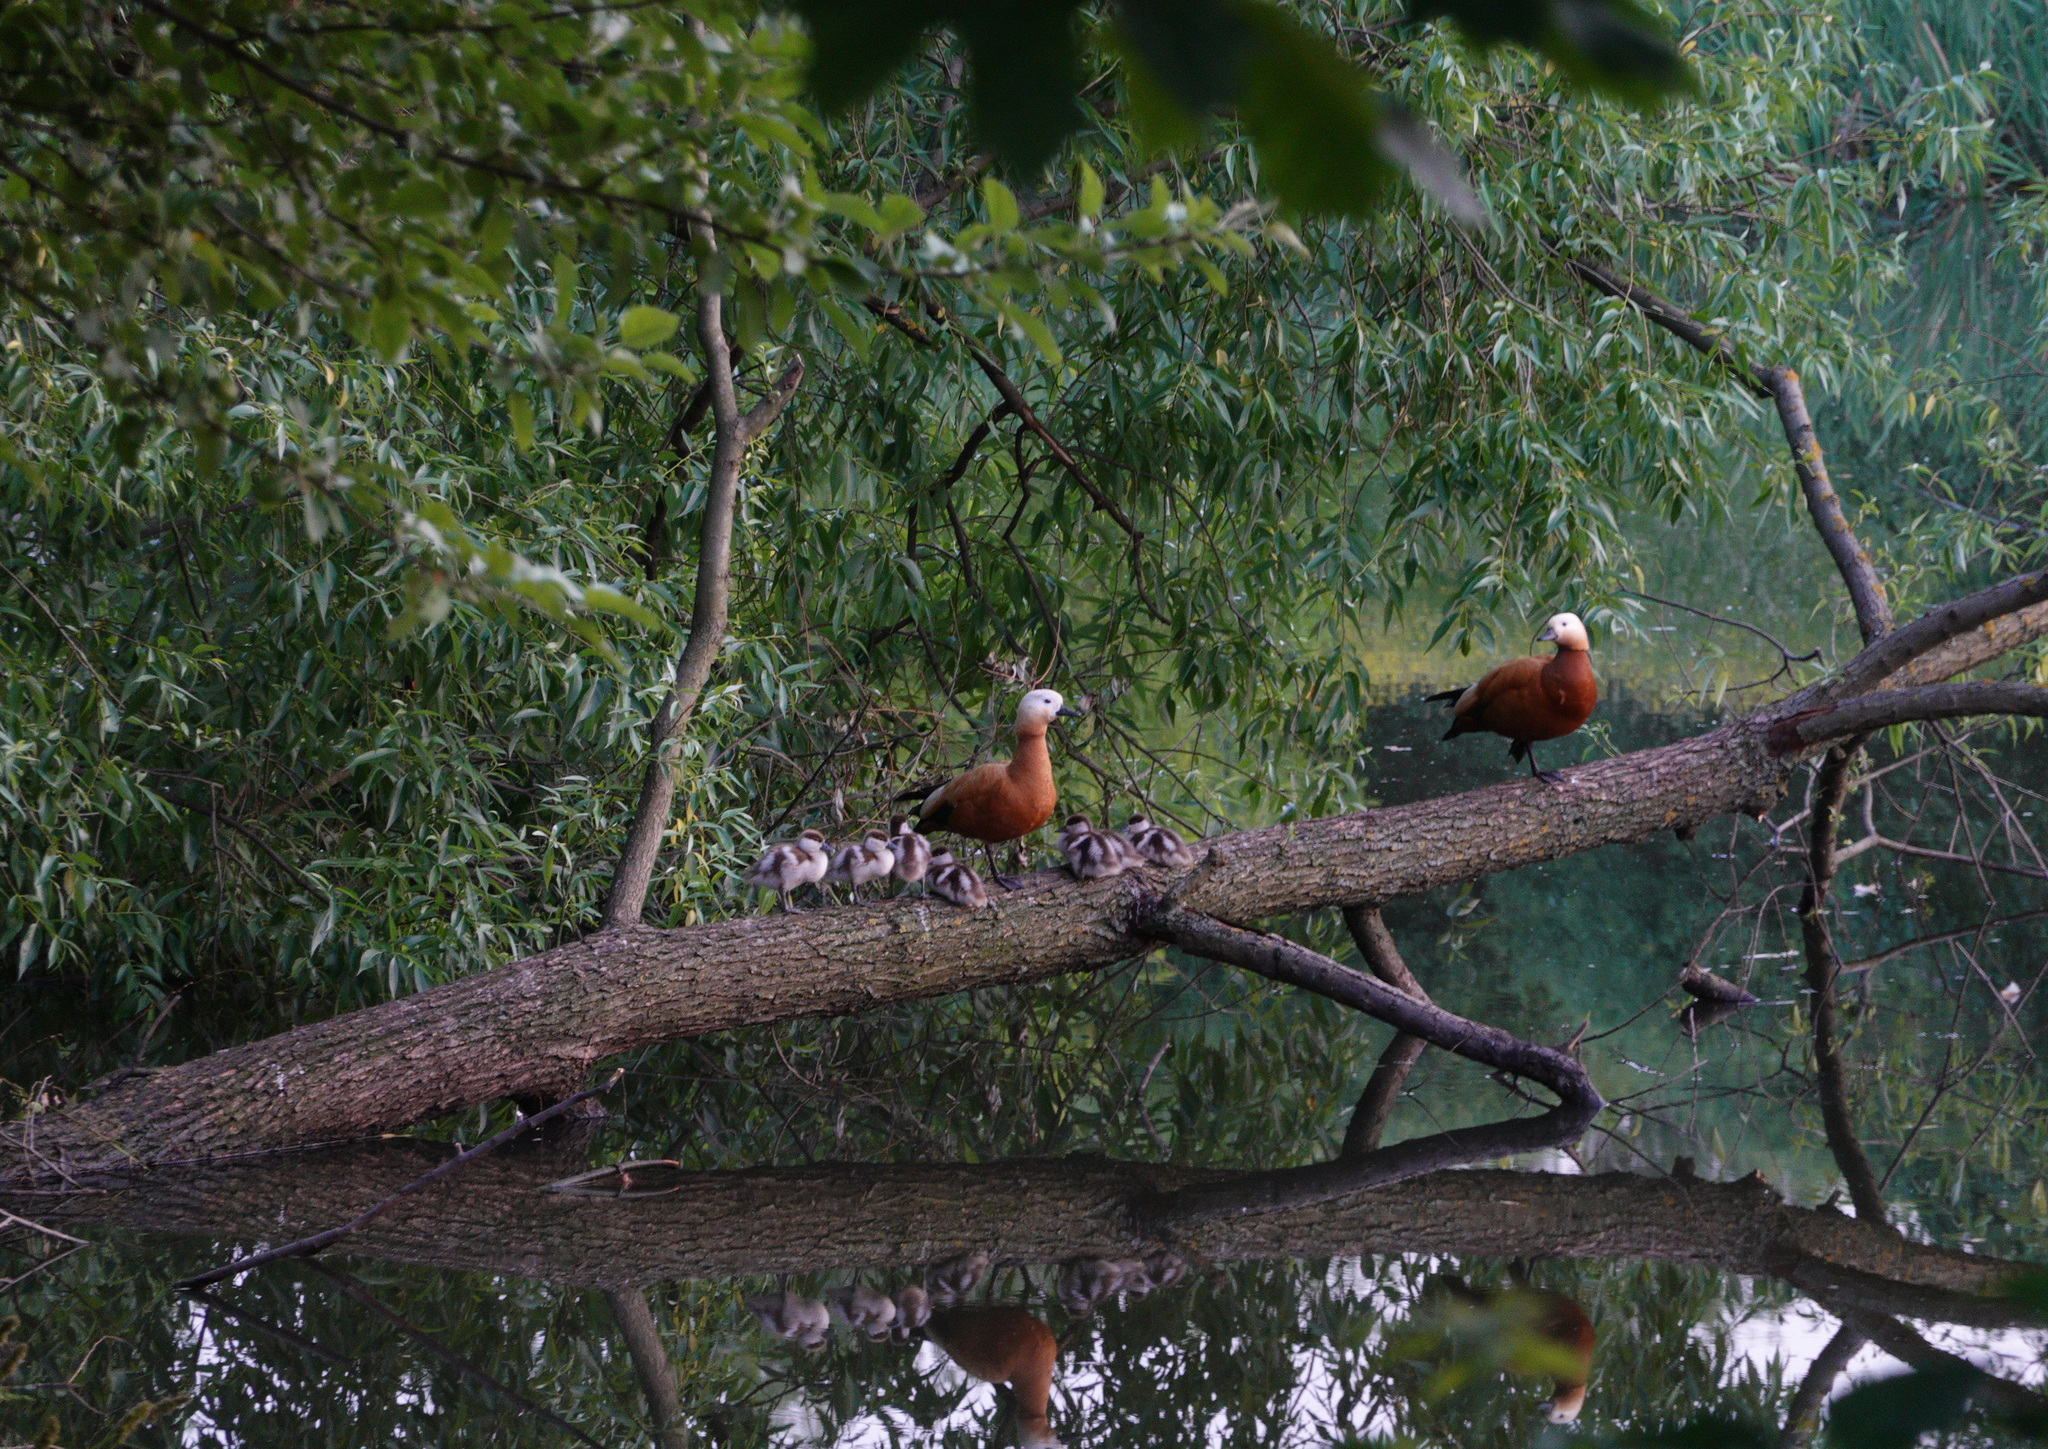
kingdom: Animalia
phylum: Chordata
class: Aves
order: Anseriformes
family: Anatidae
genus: Tadorna
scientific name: Tadorna ferruginea
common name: Ruddy shelduck
